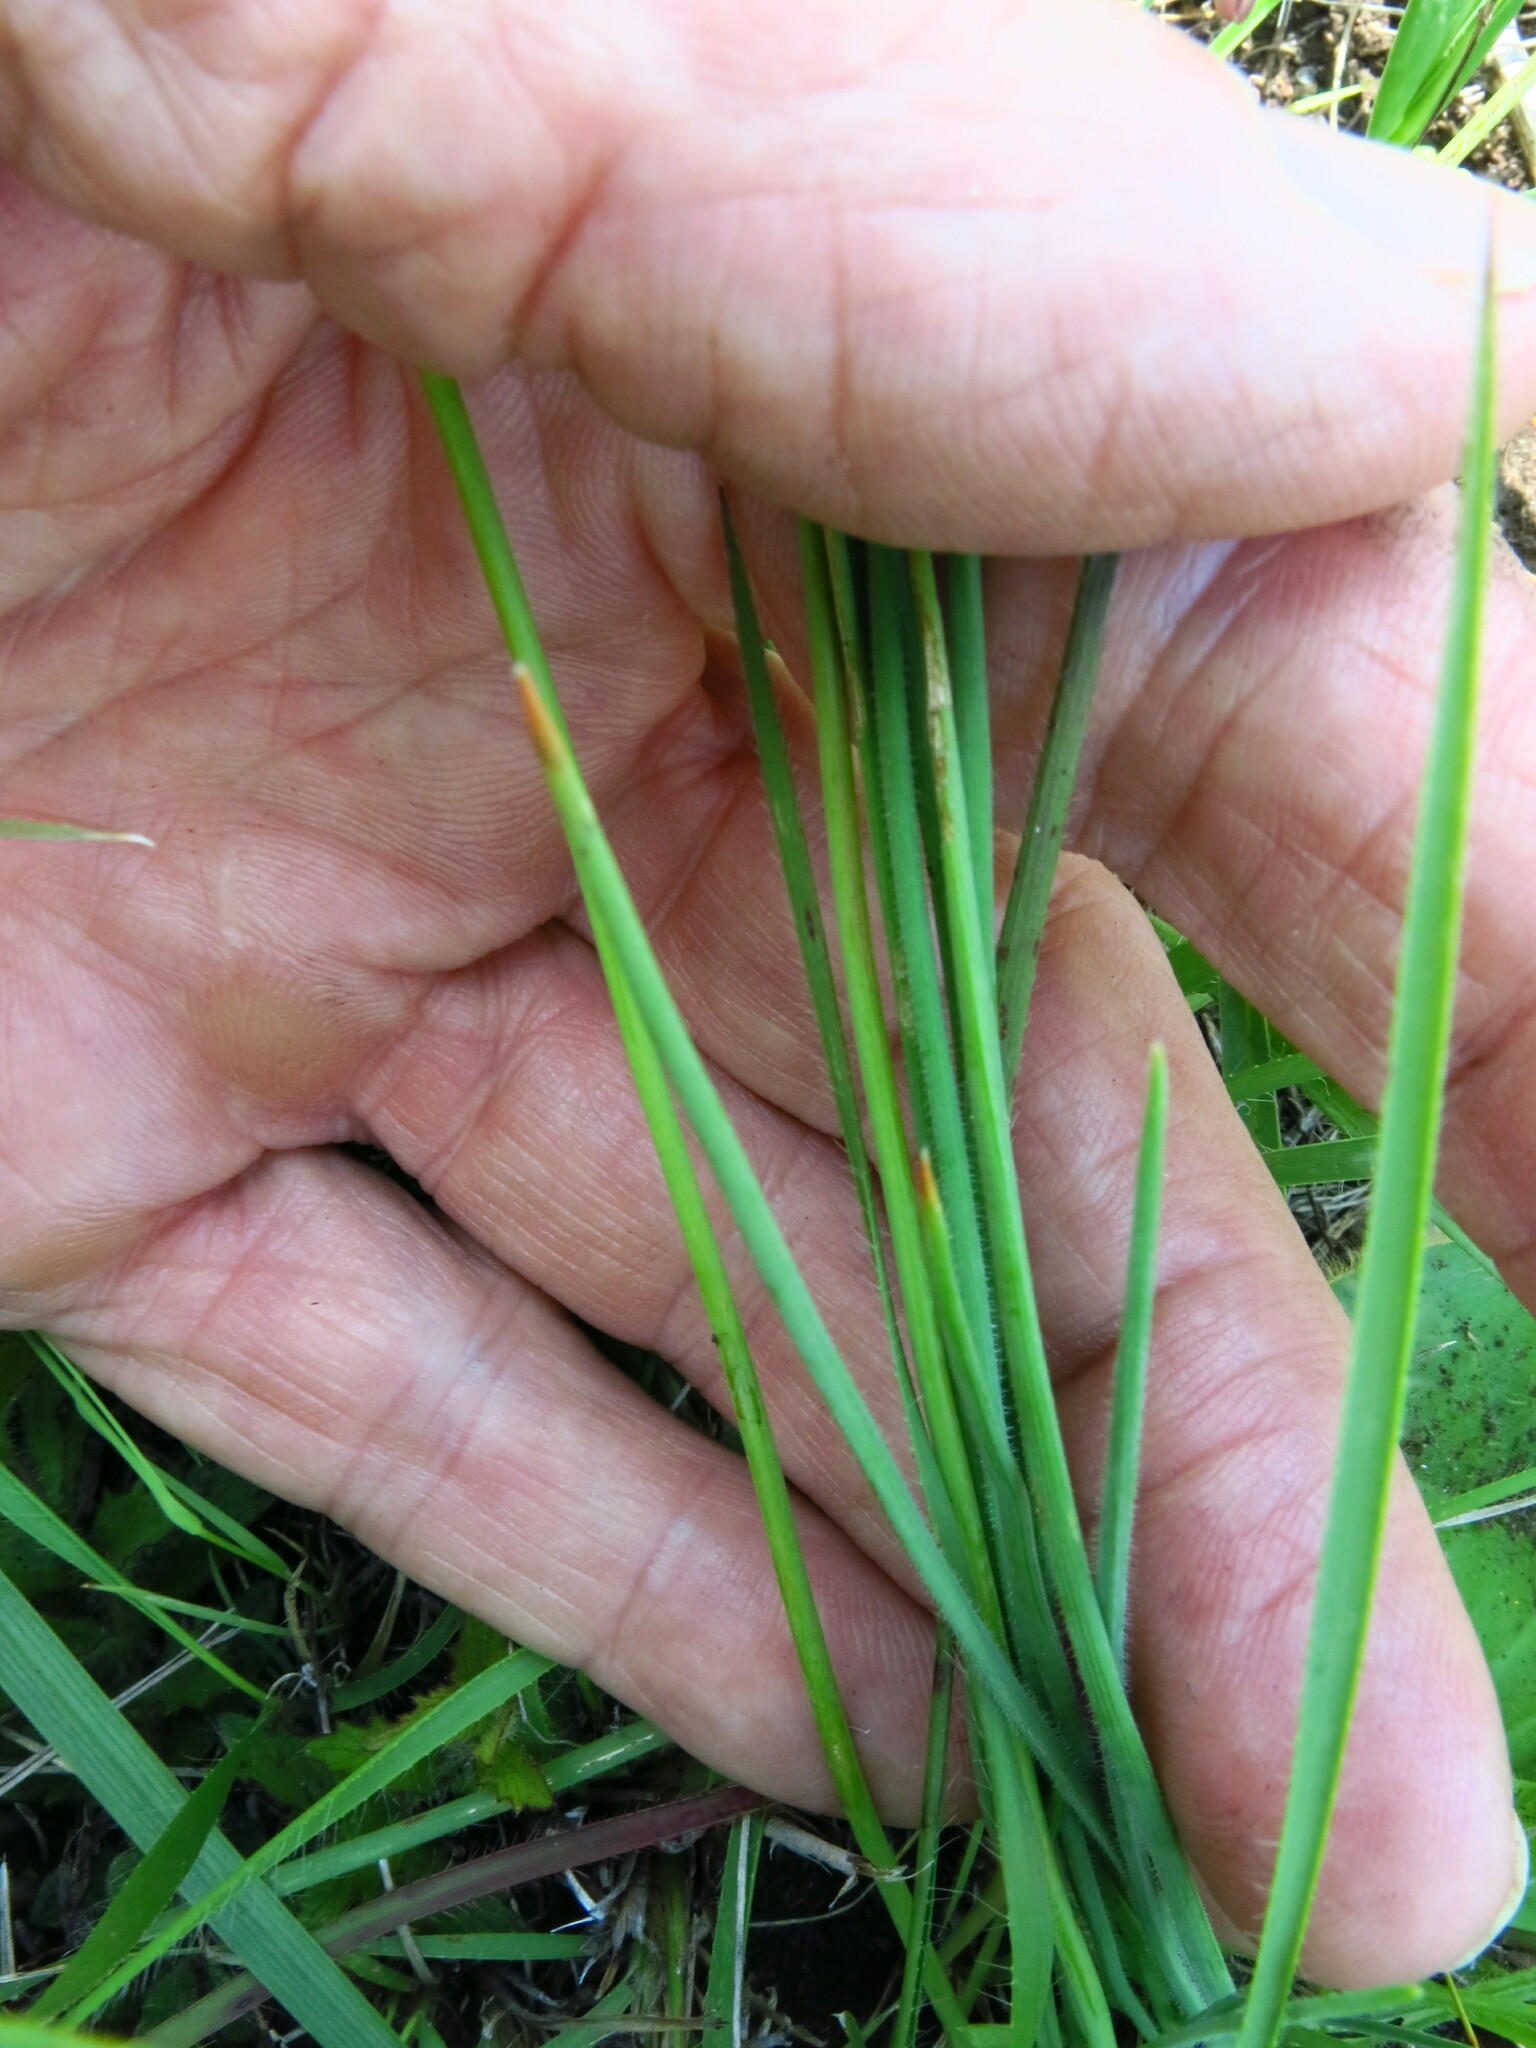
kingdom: Plantae
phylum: Tracheophyta
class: Liliopsida
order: Asparagales
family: Asphodelaceae
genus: Trachyandra
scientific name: Trachyandra asperata
